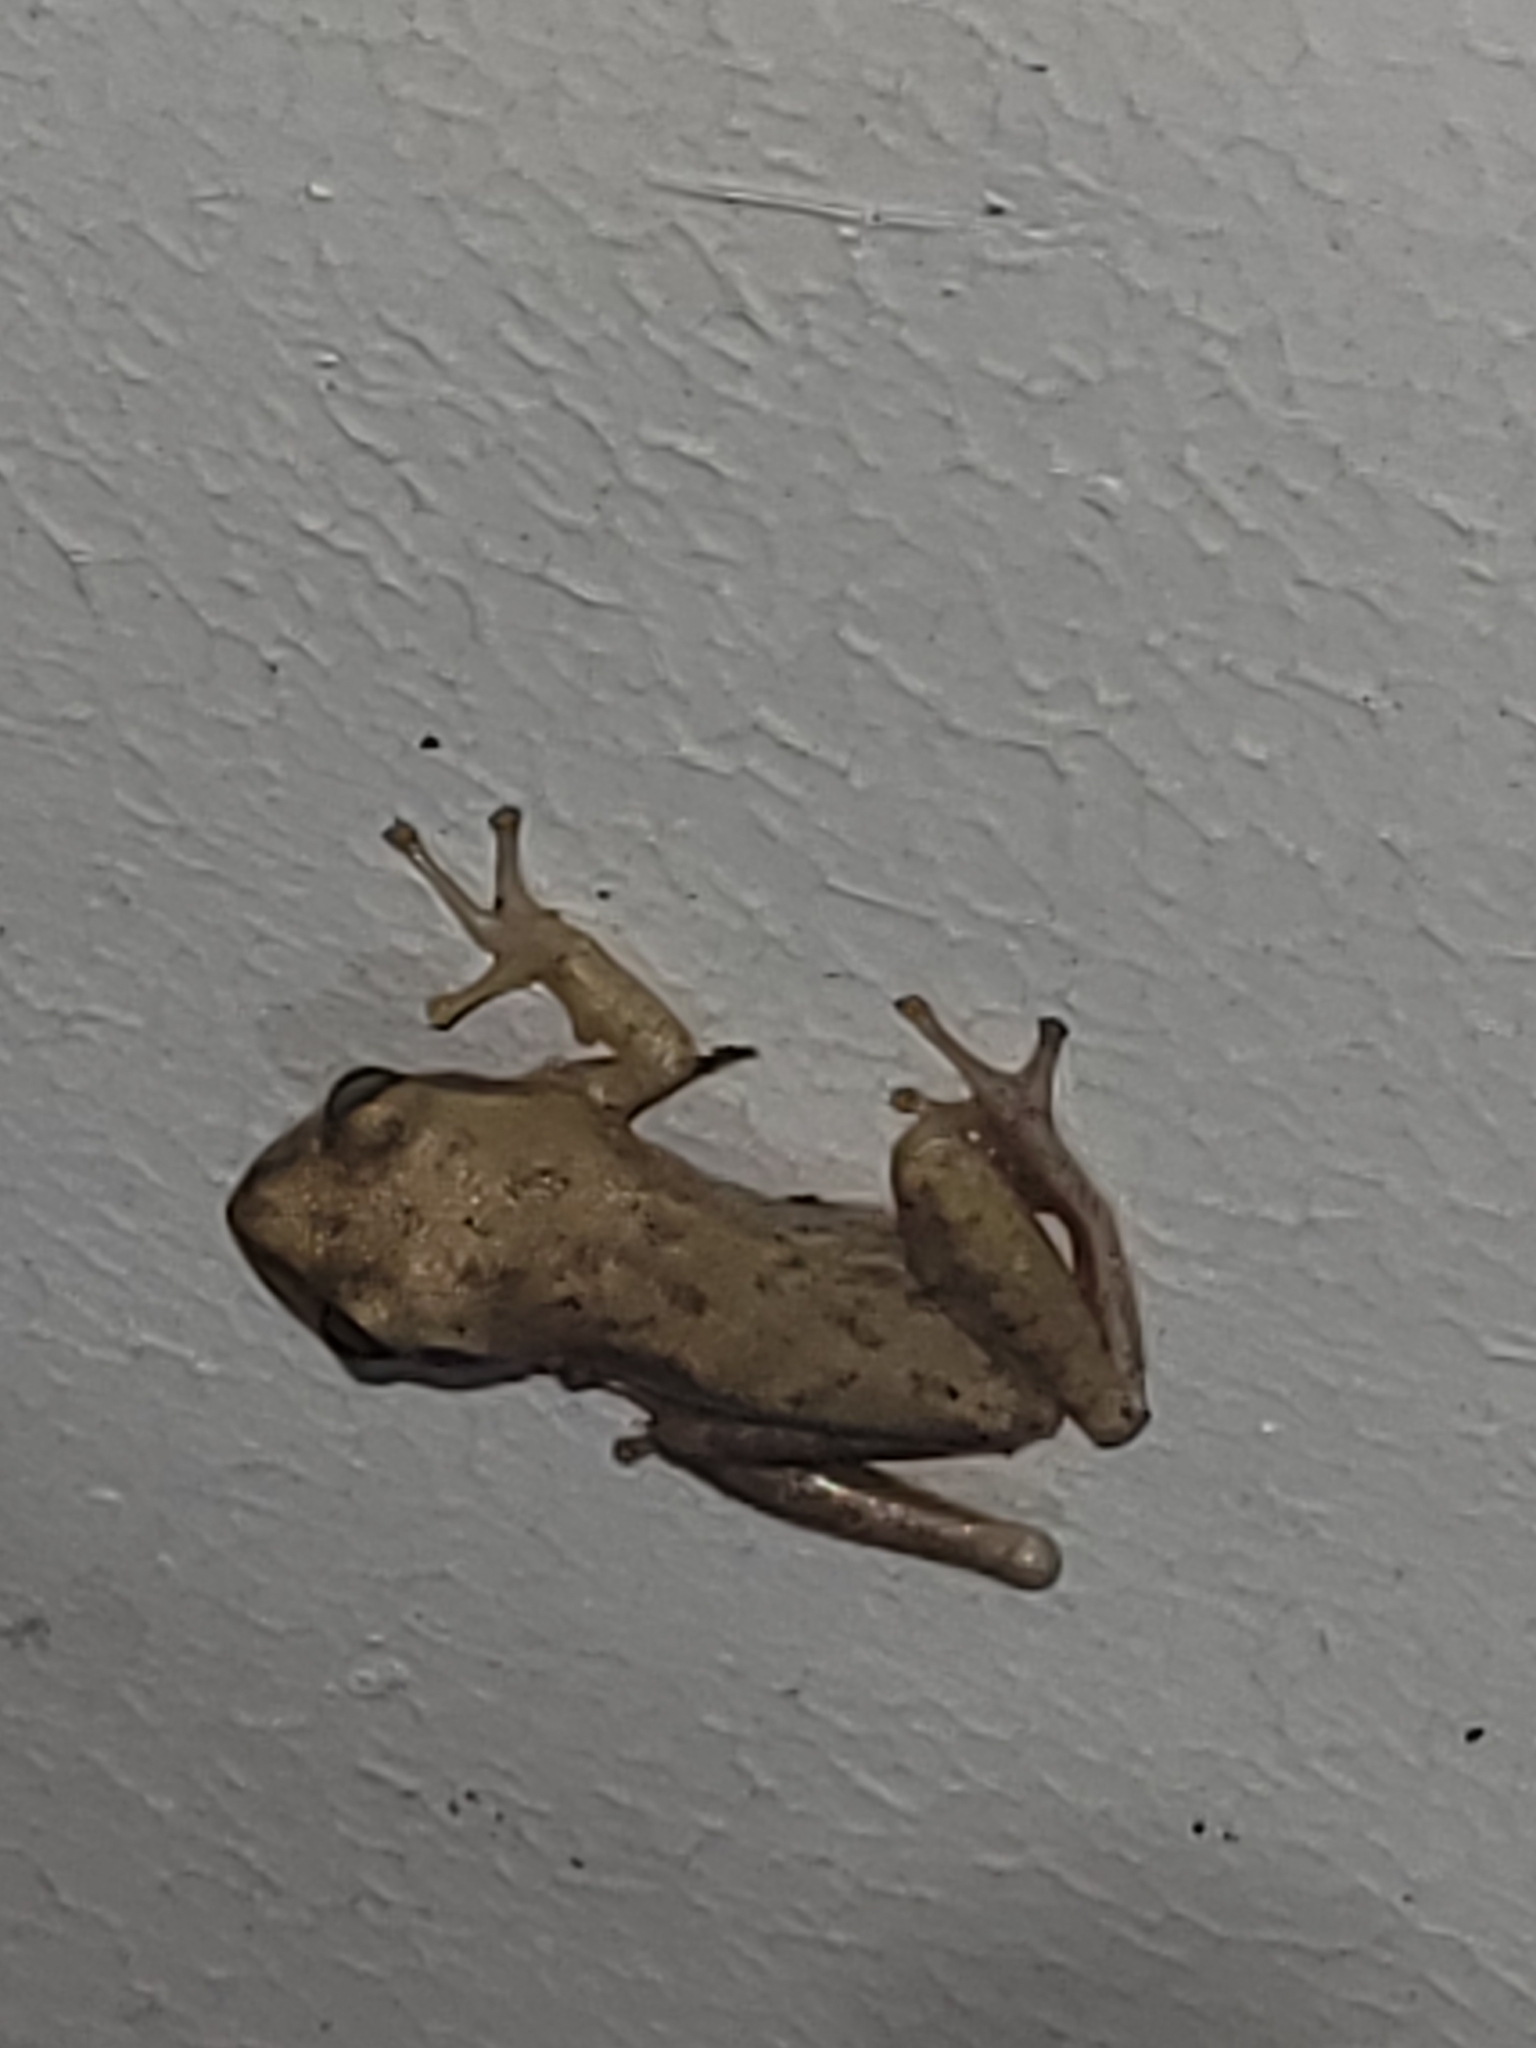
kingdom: Animalia
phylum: Chordata
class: Amphibia
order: Anura
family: Hylidae
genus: Dryophytes
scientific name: Dryophytes squirellus
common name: Squirrel treefrog
